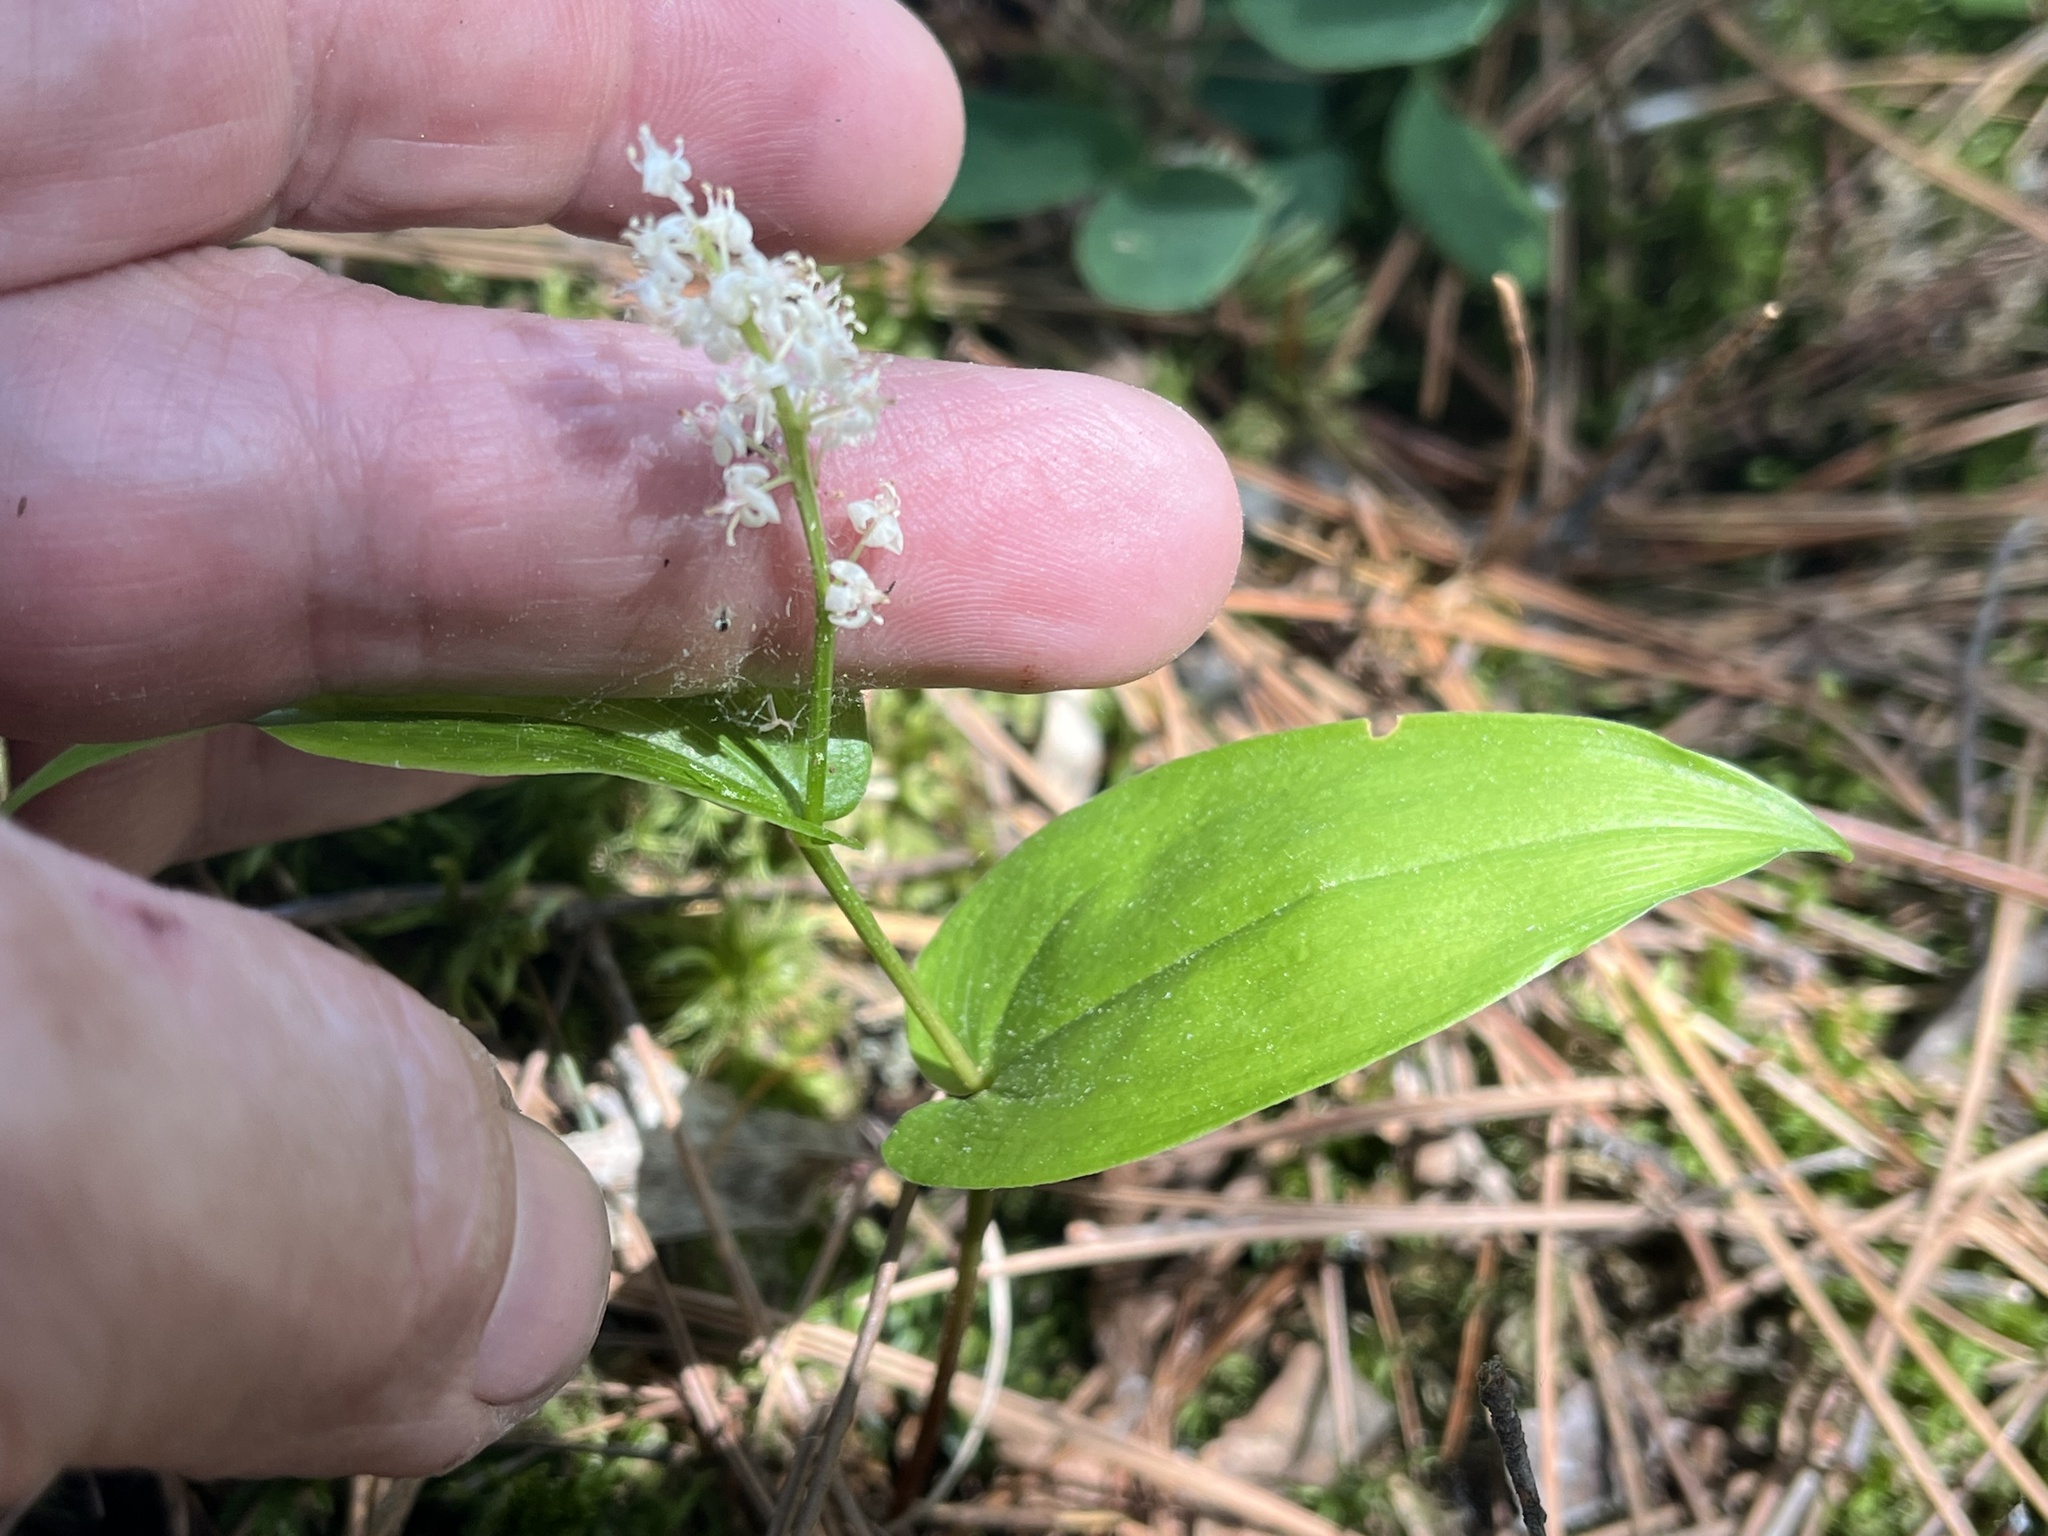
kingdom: Plantae
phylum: Tracheophyta
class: Liliopsida
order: Asparagales
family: Asparagaceae
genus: Maianthemum
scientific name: Maianthemum canadense
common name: False lily-of-the-valley
